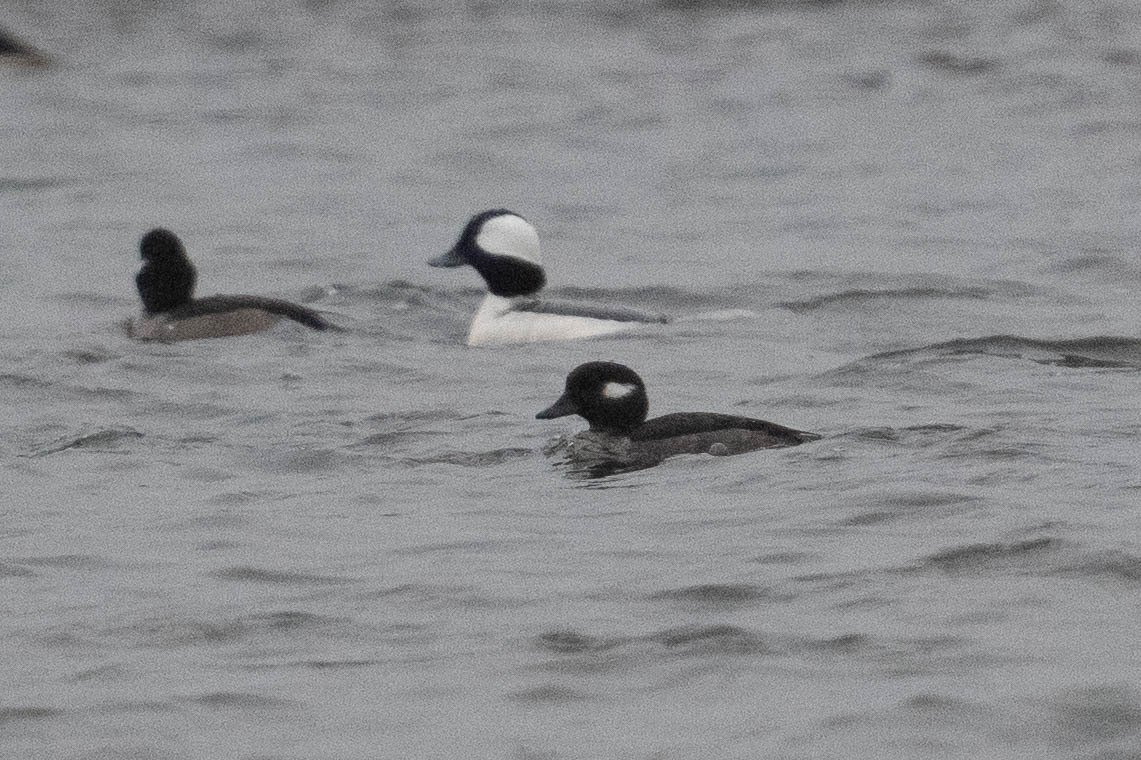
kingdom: Animalia
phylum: Chordata
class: Aves
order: Anseriformes
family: Anatidae
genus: Bucephala
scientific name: Bucephala albeola
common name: Bufflehead
